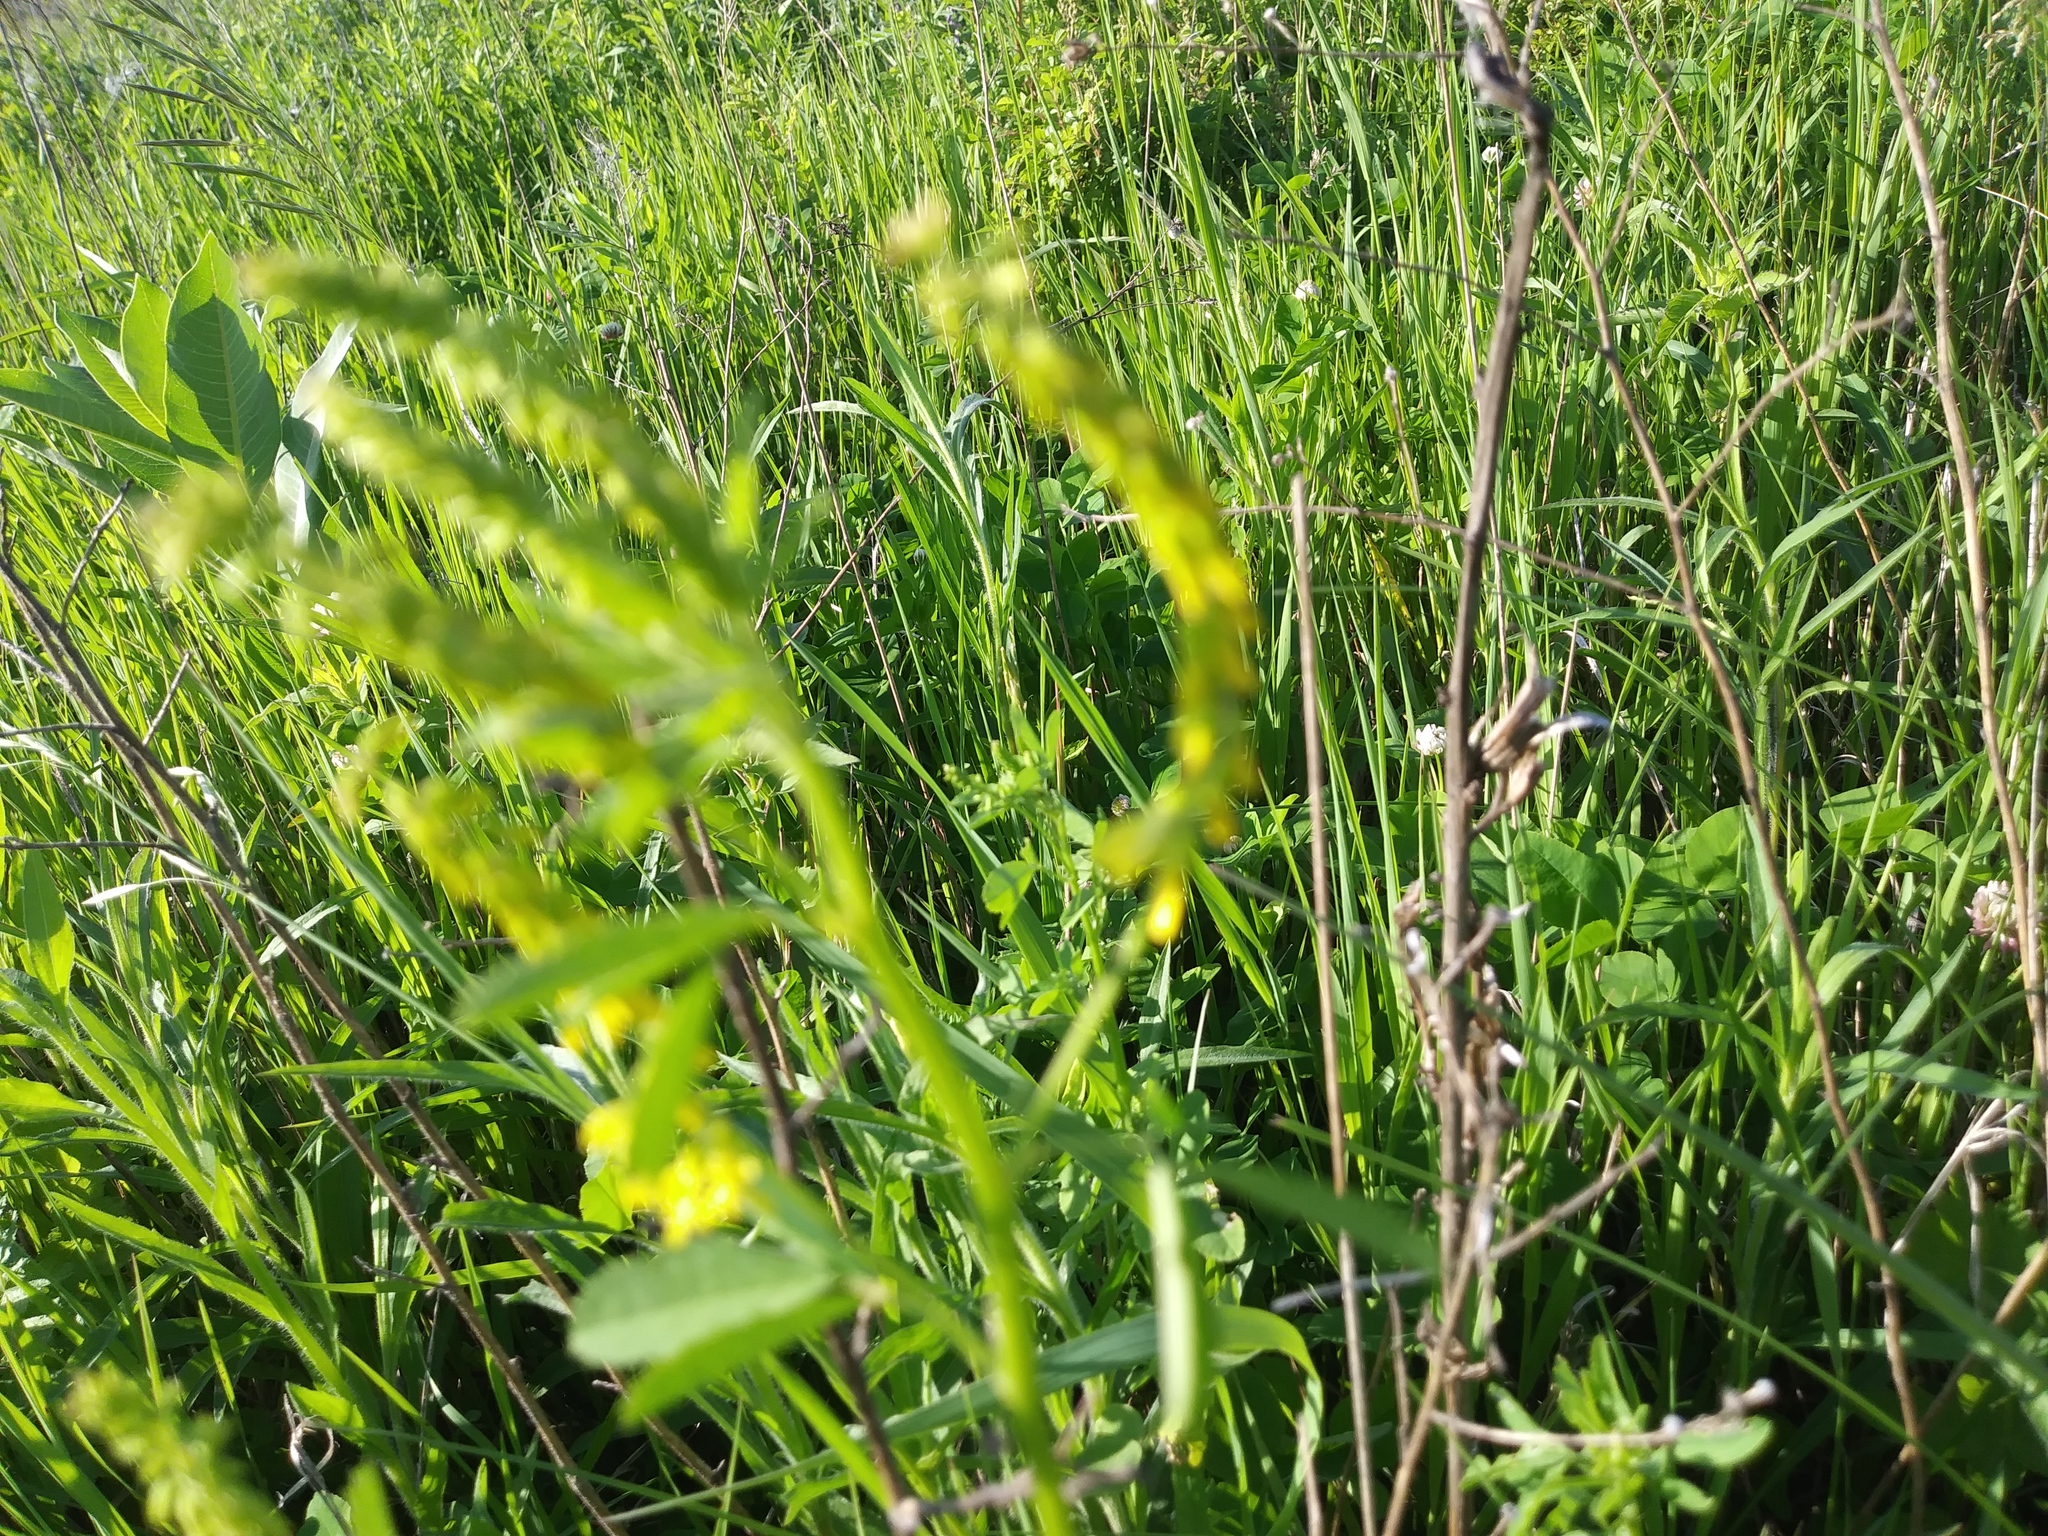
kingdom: Plantae
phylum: Tracheophyta
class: Magnoliopsida
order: Fabales
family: Fabaceae
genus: Melilotus
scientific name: Melilotus officinalis
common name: Sweetclover
